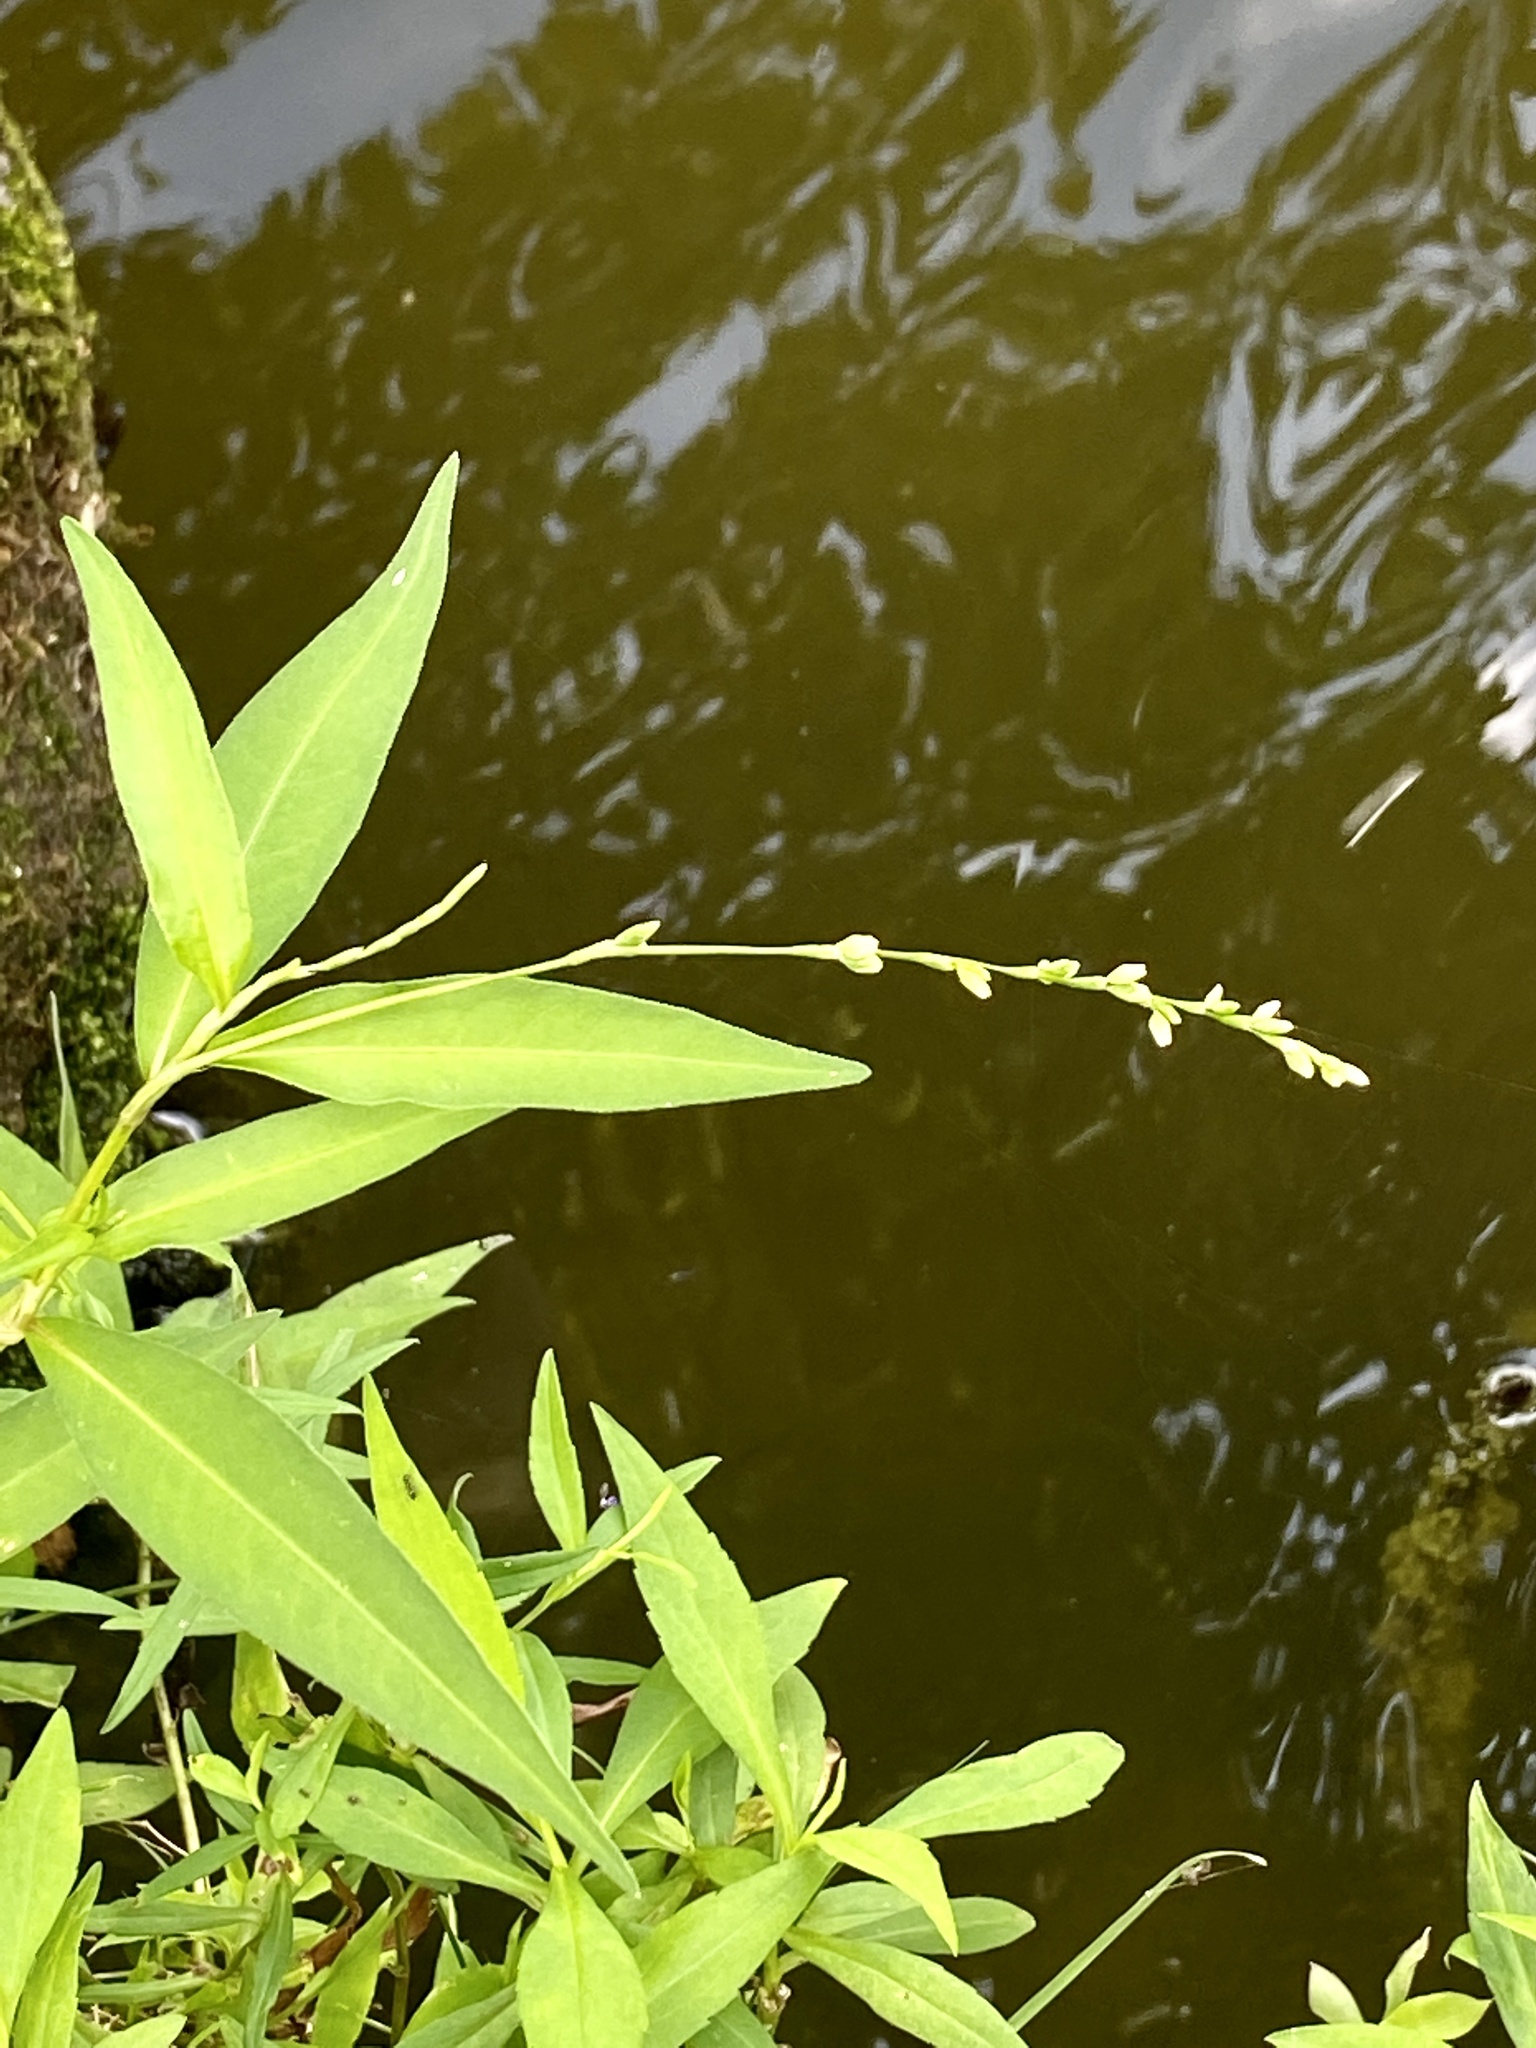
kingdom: Plantae
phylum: Tracheophyta
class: Magnoliopsida
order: Caryophyllales
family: Polygonaceae
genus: Persicaria
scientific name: Persicaria punctata
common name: Dotted smartweed
